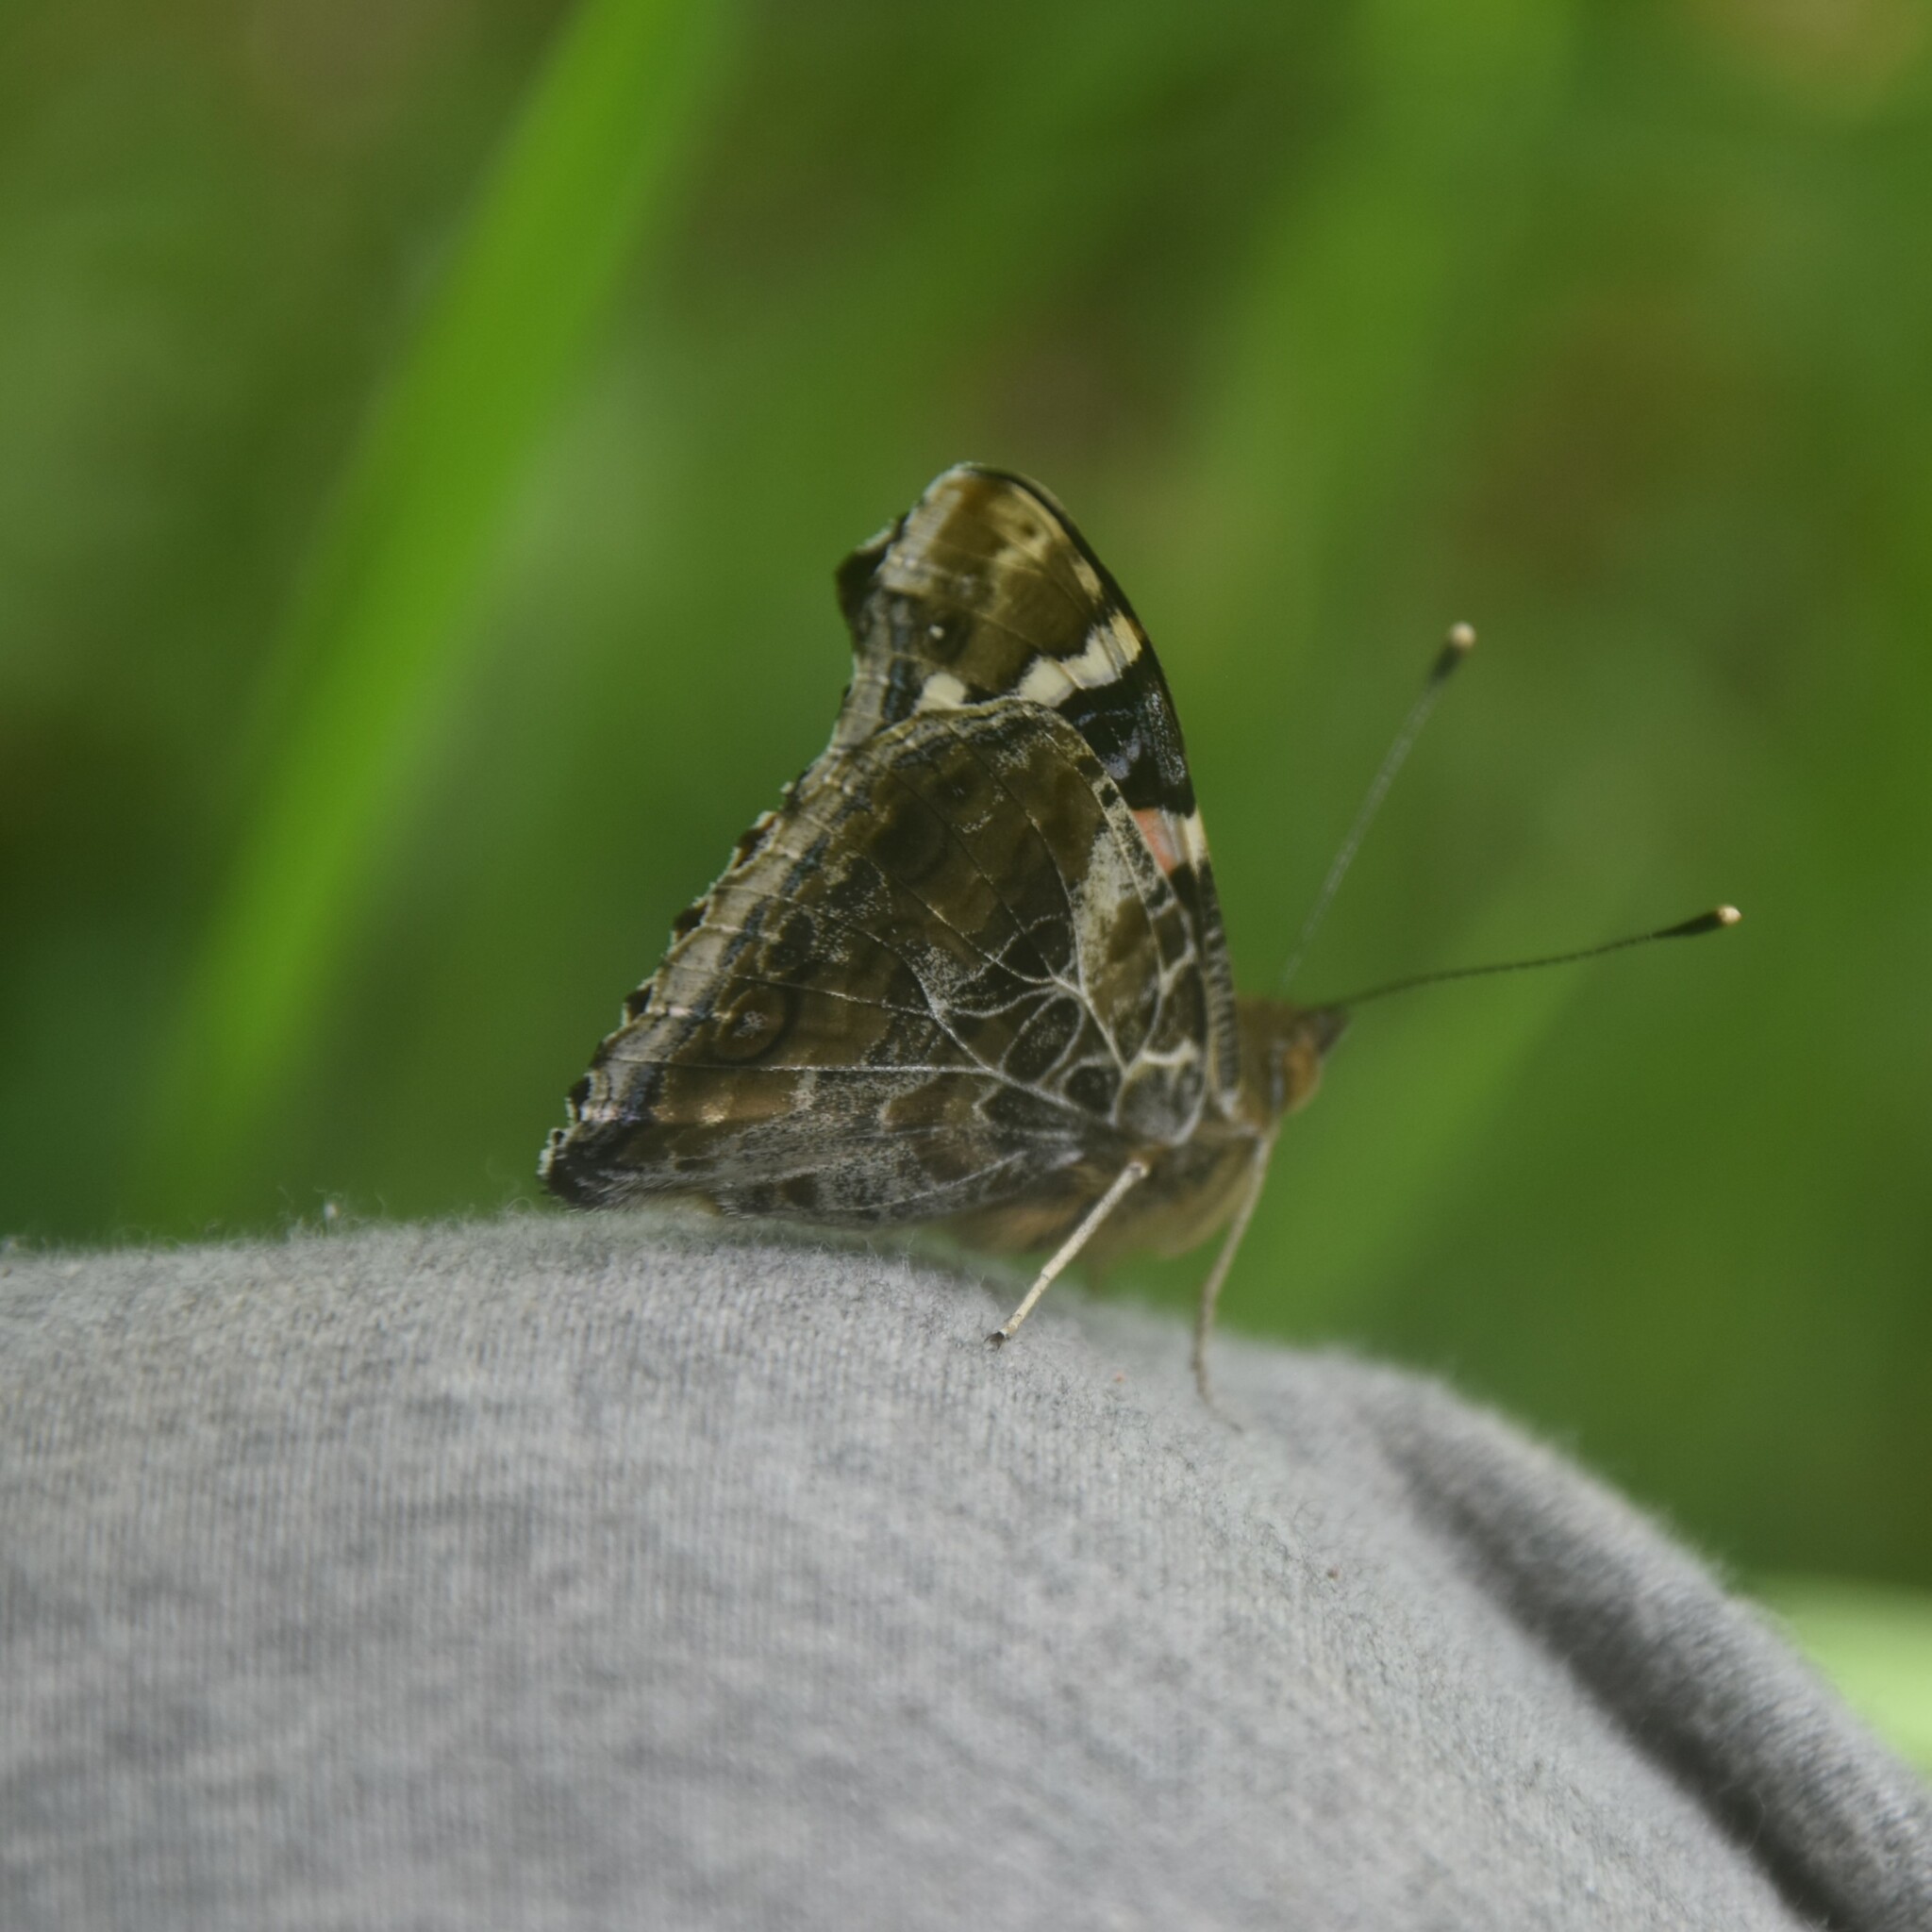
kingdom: Animalia
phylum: Arthropoda
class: Insecta
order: Lepidoptera
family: Nymphalidae
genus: Vanessa
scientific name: Vanessa indica
